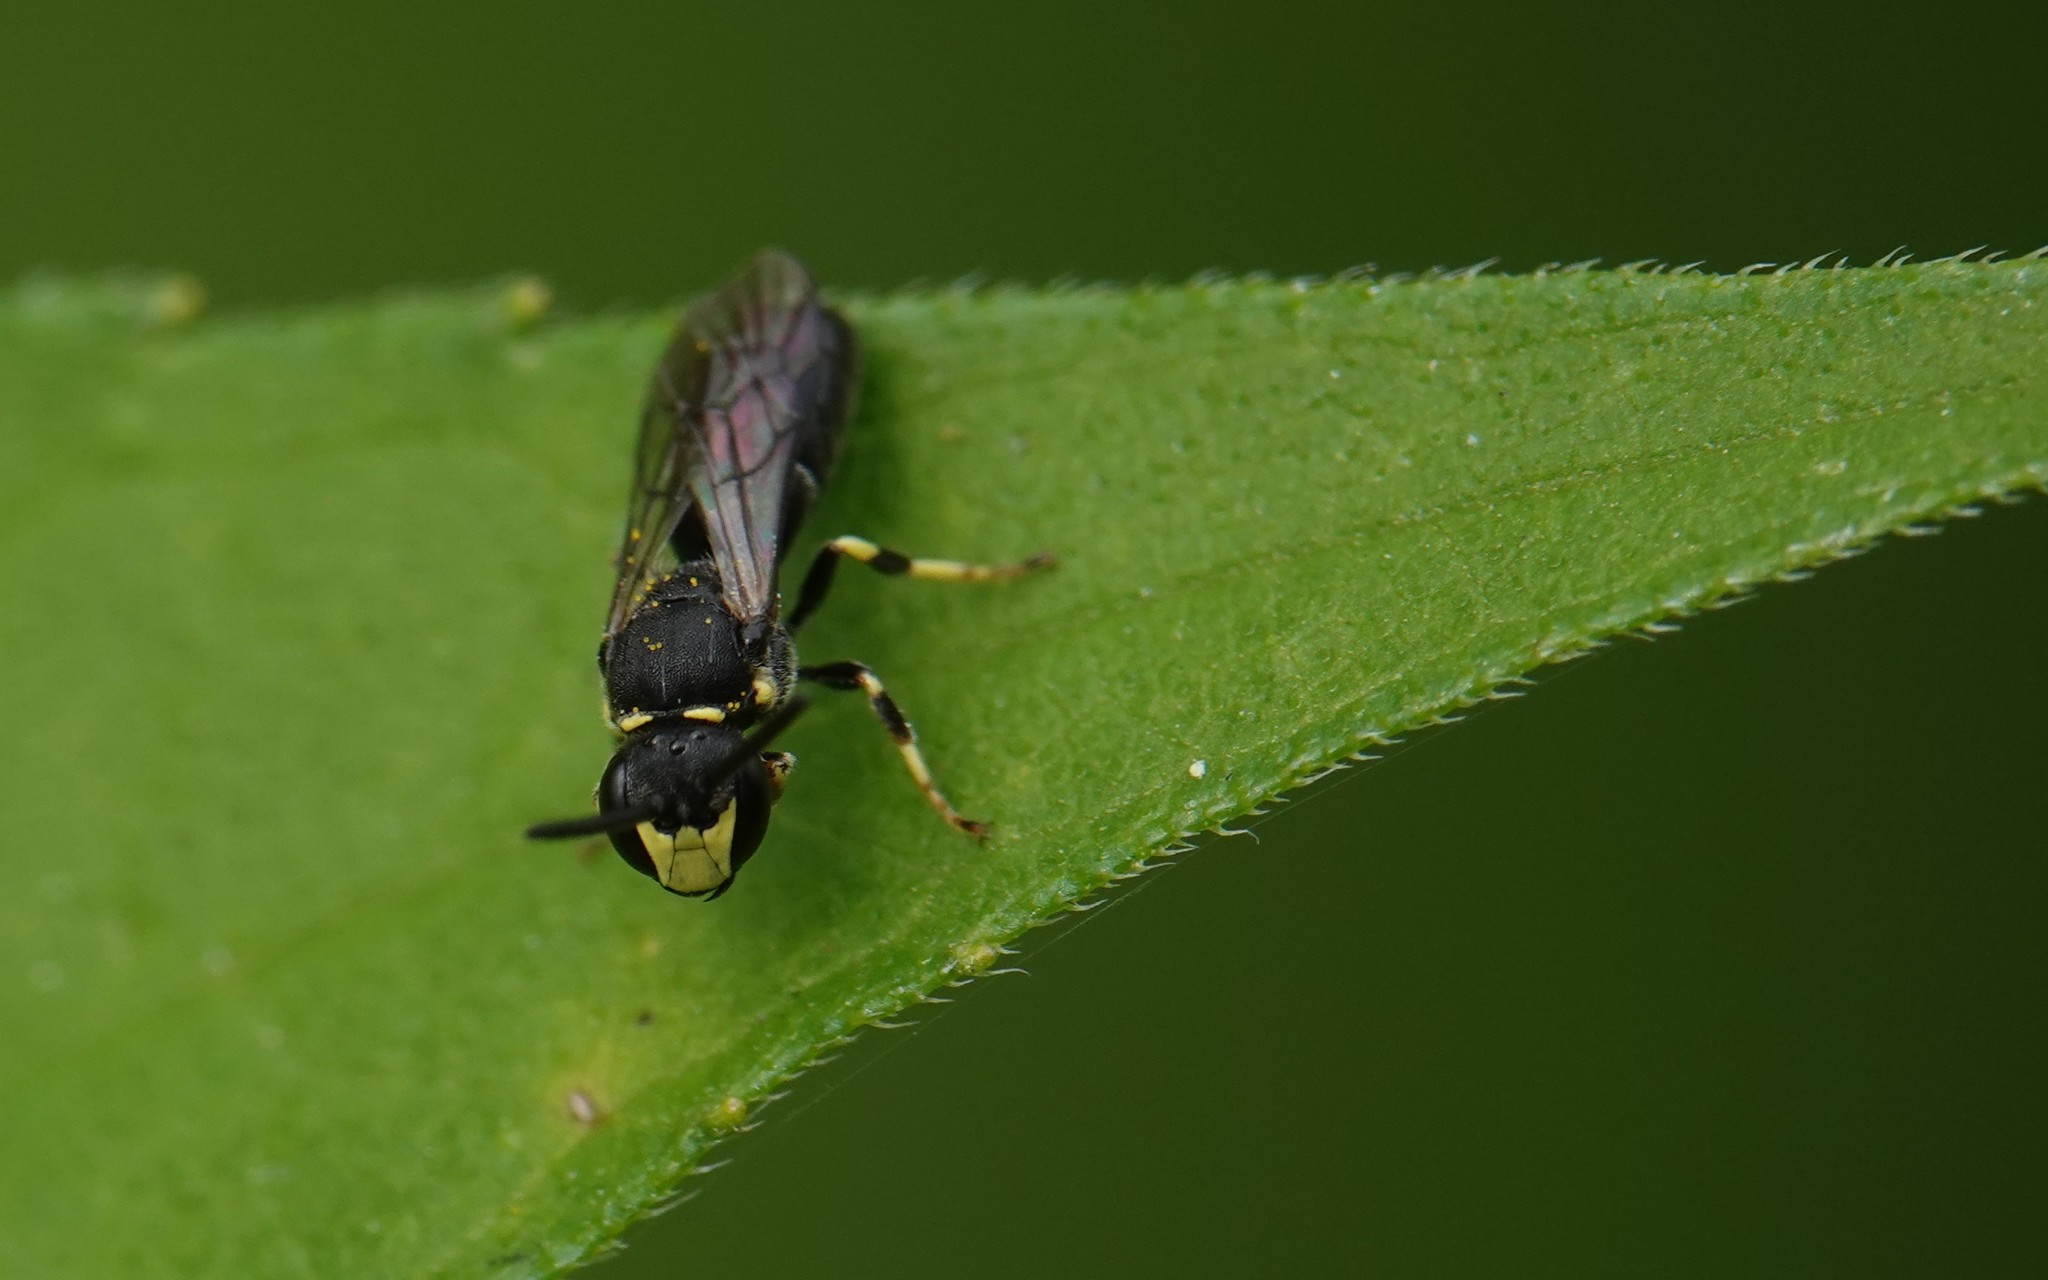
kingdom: Animalia
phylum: Arthropoda
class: Insecta
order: Hymenoptera
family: Colletidae
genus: Hylaeus
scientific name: Hylaeus modestus
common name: Yellow-faced bee
